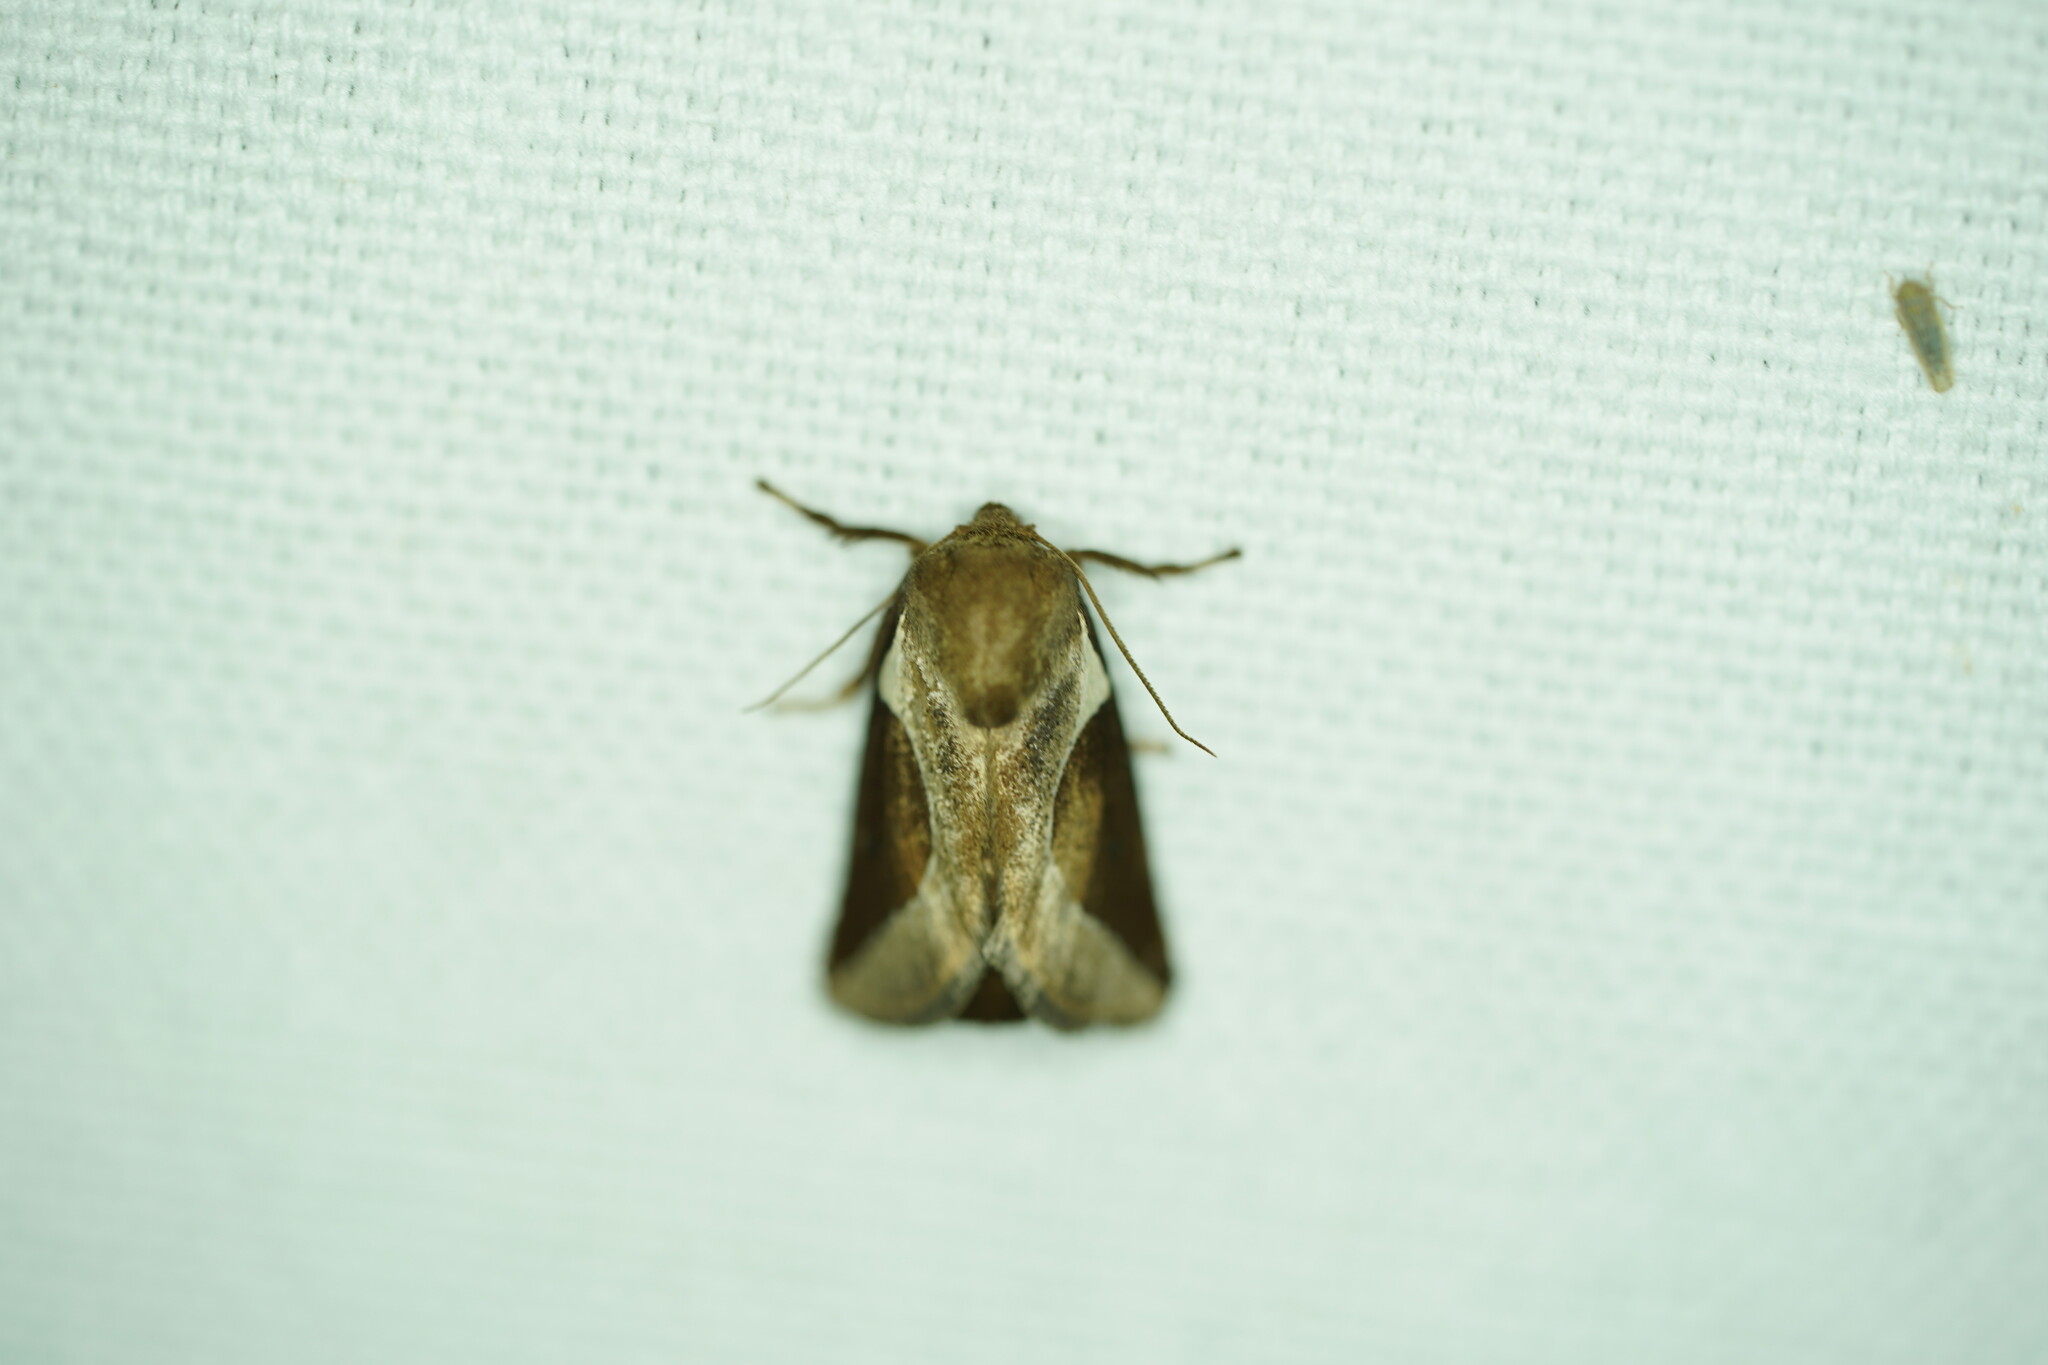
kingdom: Animalia
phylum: Arthropoda
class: Insecta
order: Lepidoptera
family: Limacodidae
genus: Prolimacodes
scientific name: Prolimacodes badia
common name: Skiff moth
